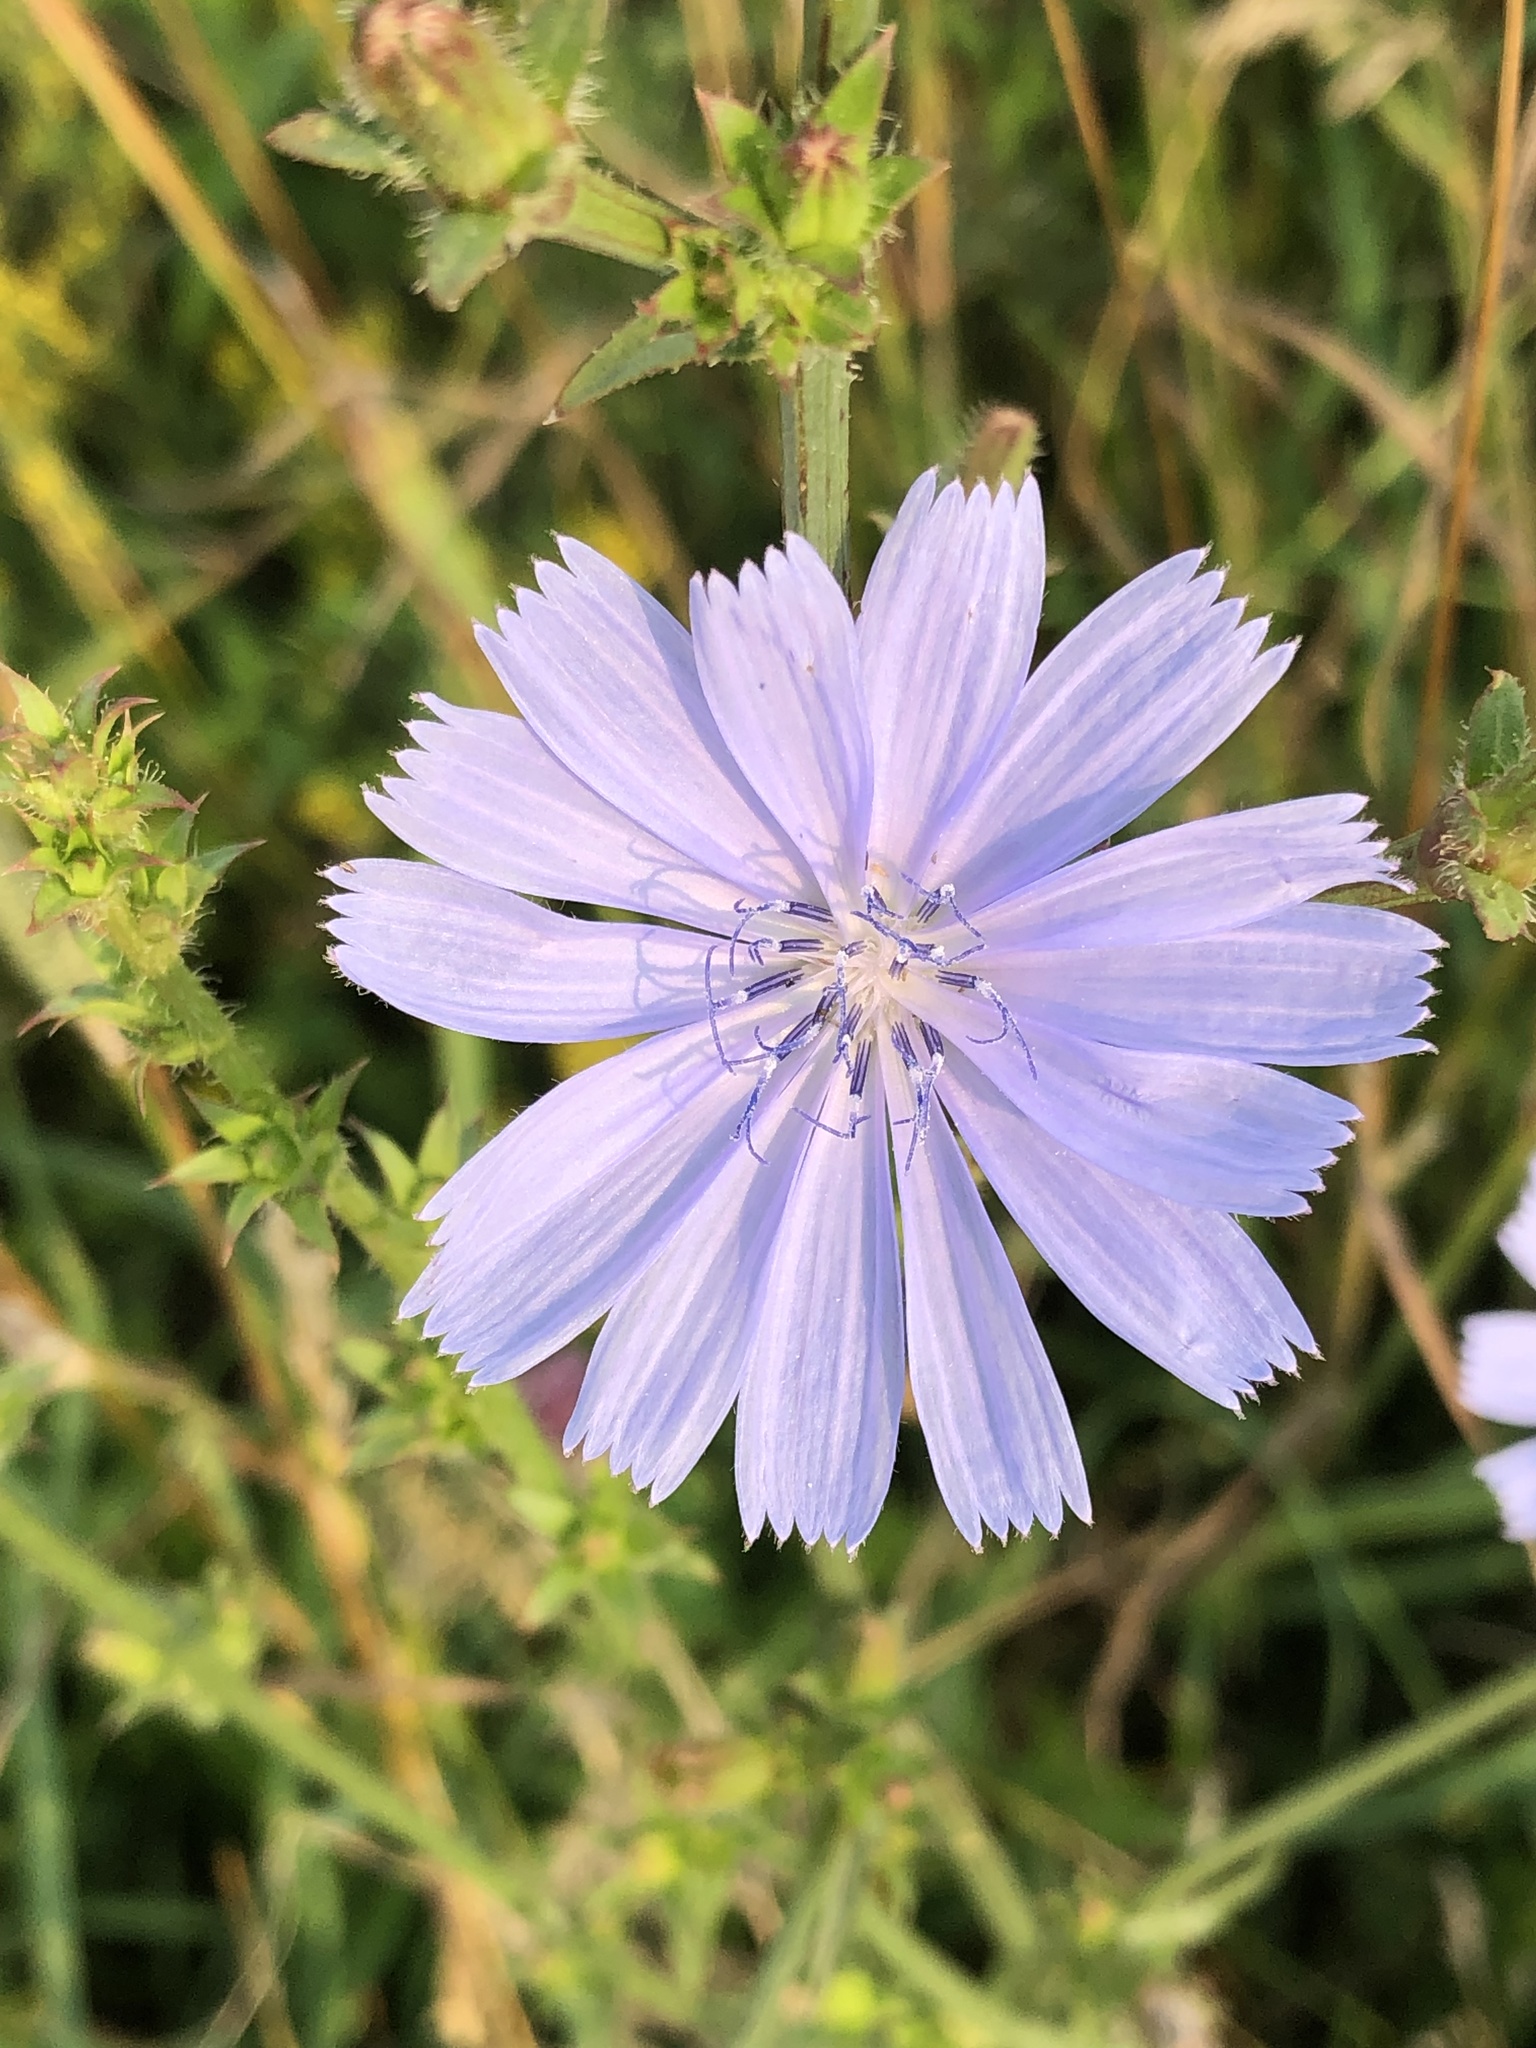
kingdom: Plantae
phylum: Tracheophyta
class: Magnoliopsida
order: Asterales
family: Asteraceae
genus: Cichorium
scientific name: Cichorium intybus
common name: Chicory
